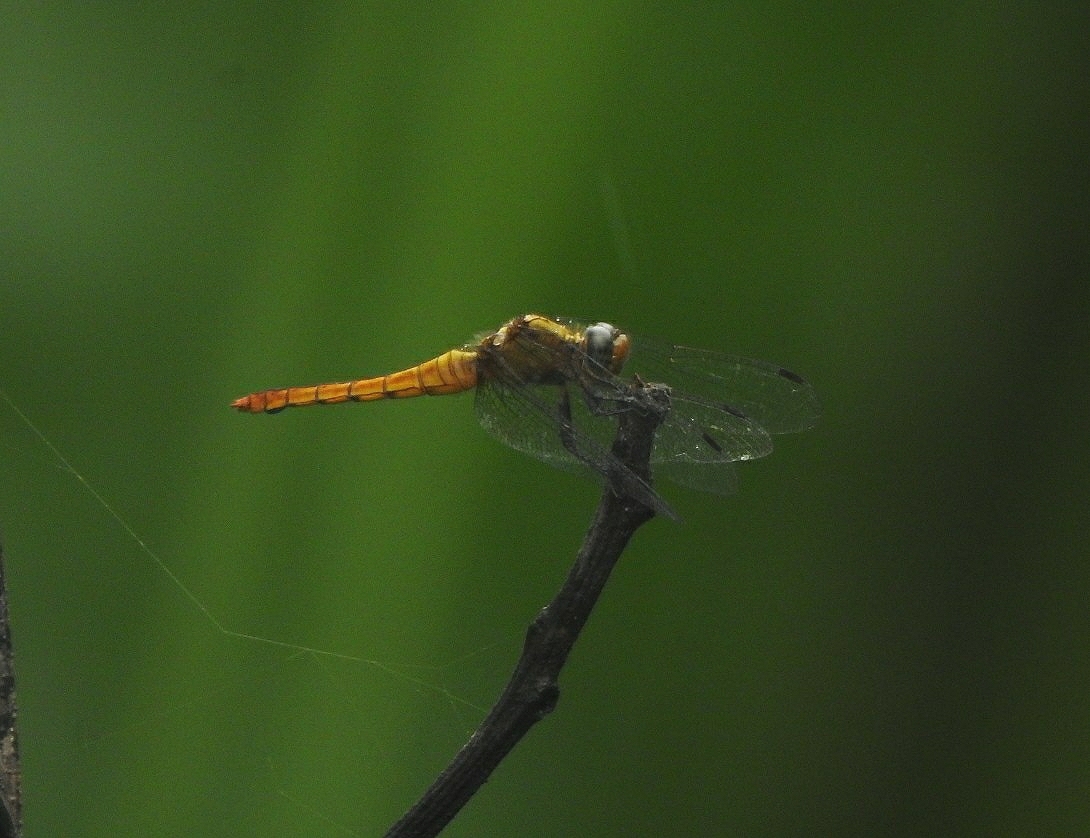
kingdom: Animalia
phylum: Arthropoda
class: Insecta
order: Odonata
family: Libellulidae
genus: Orthetrum
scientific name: Orthetrum pruinosum
